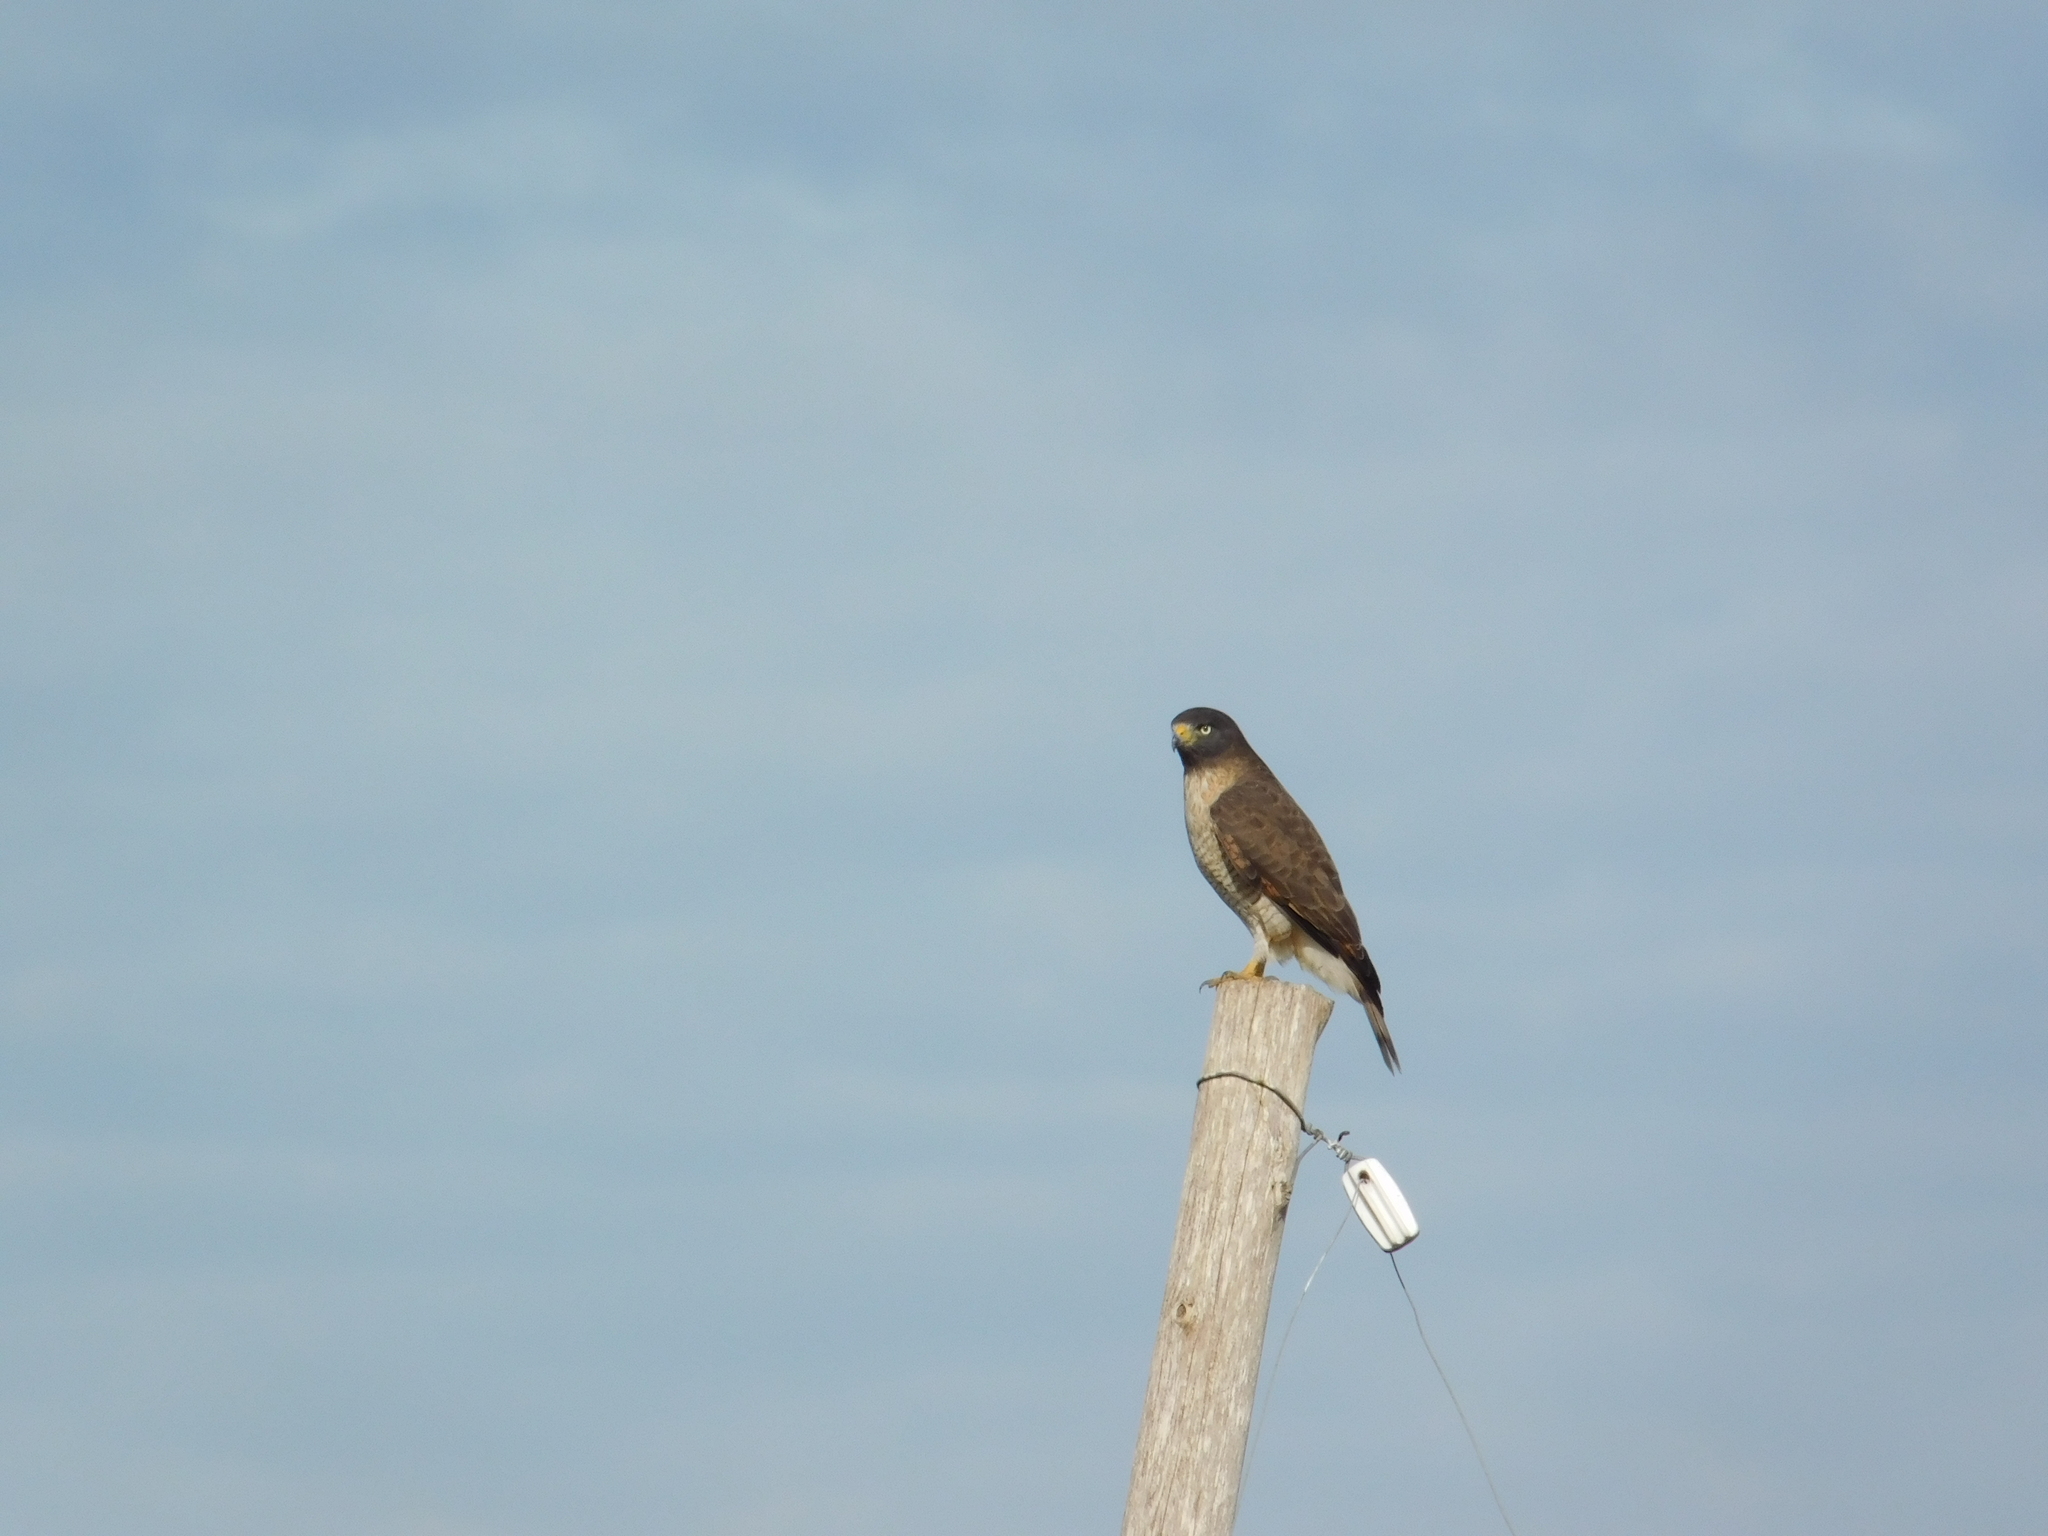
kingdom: Animalia
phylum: Chordata
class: Aves
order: Accipitriformes
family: Accipitridae
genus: Rupornis
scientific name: Rupornis magnirostris
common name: Roadside hawk
